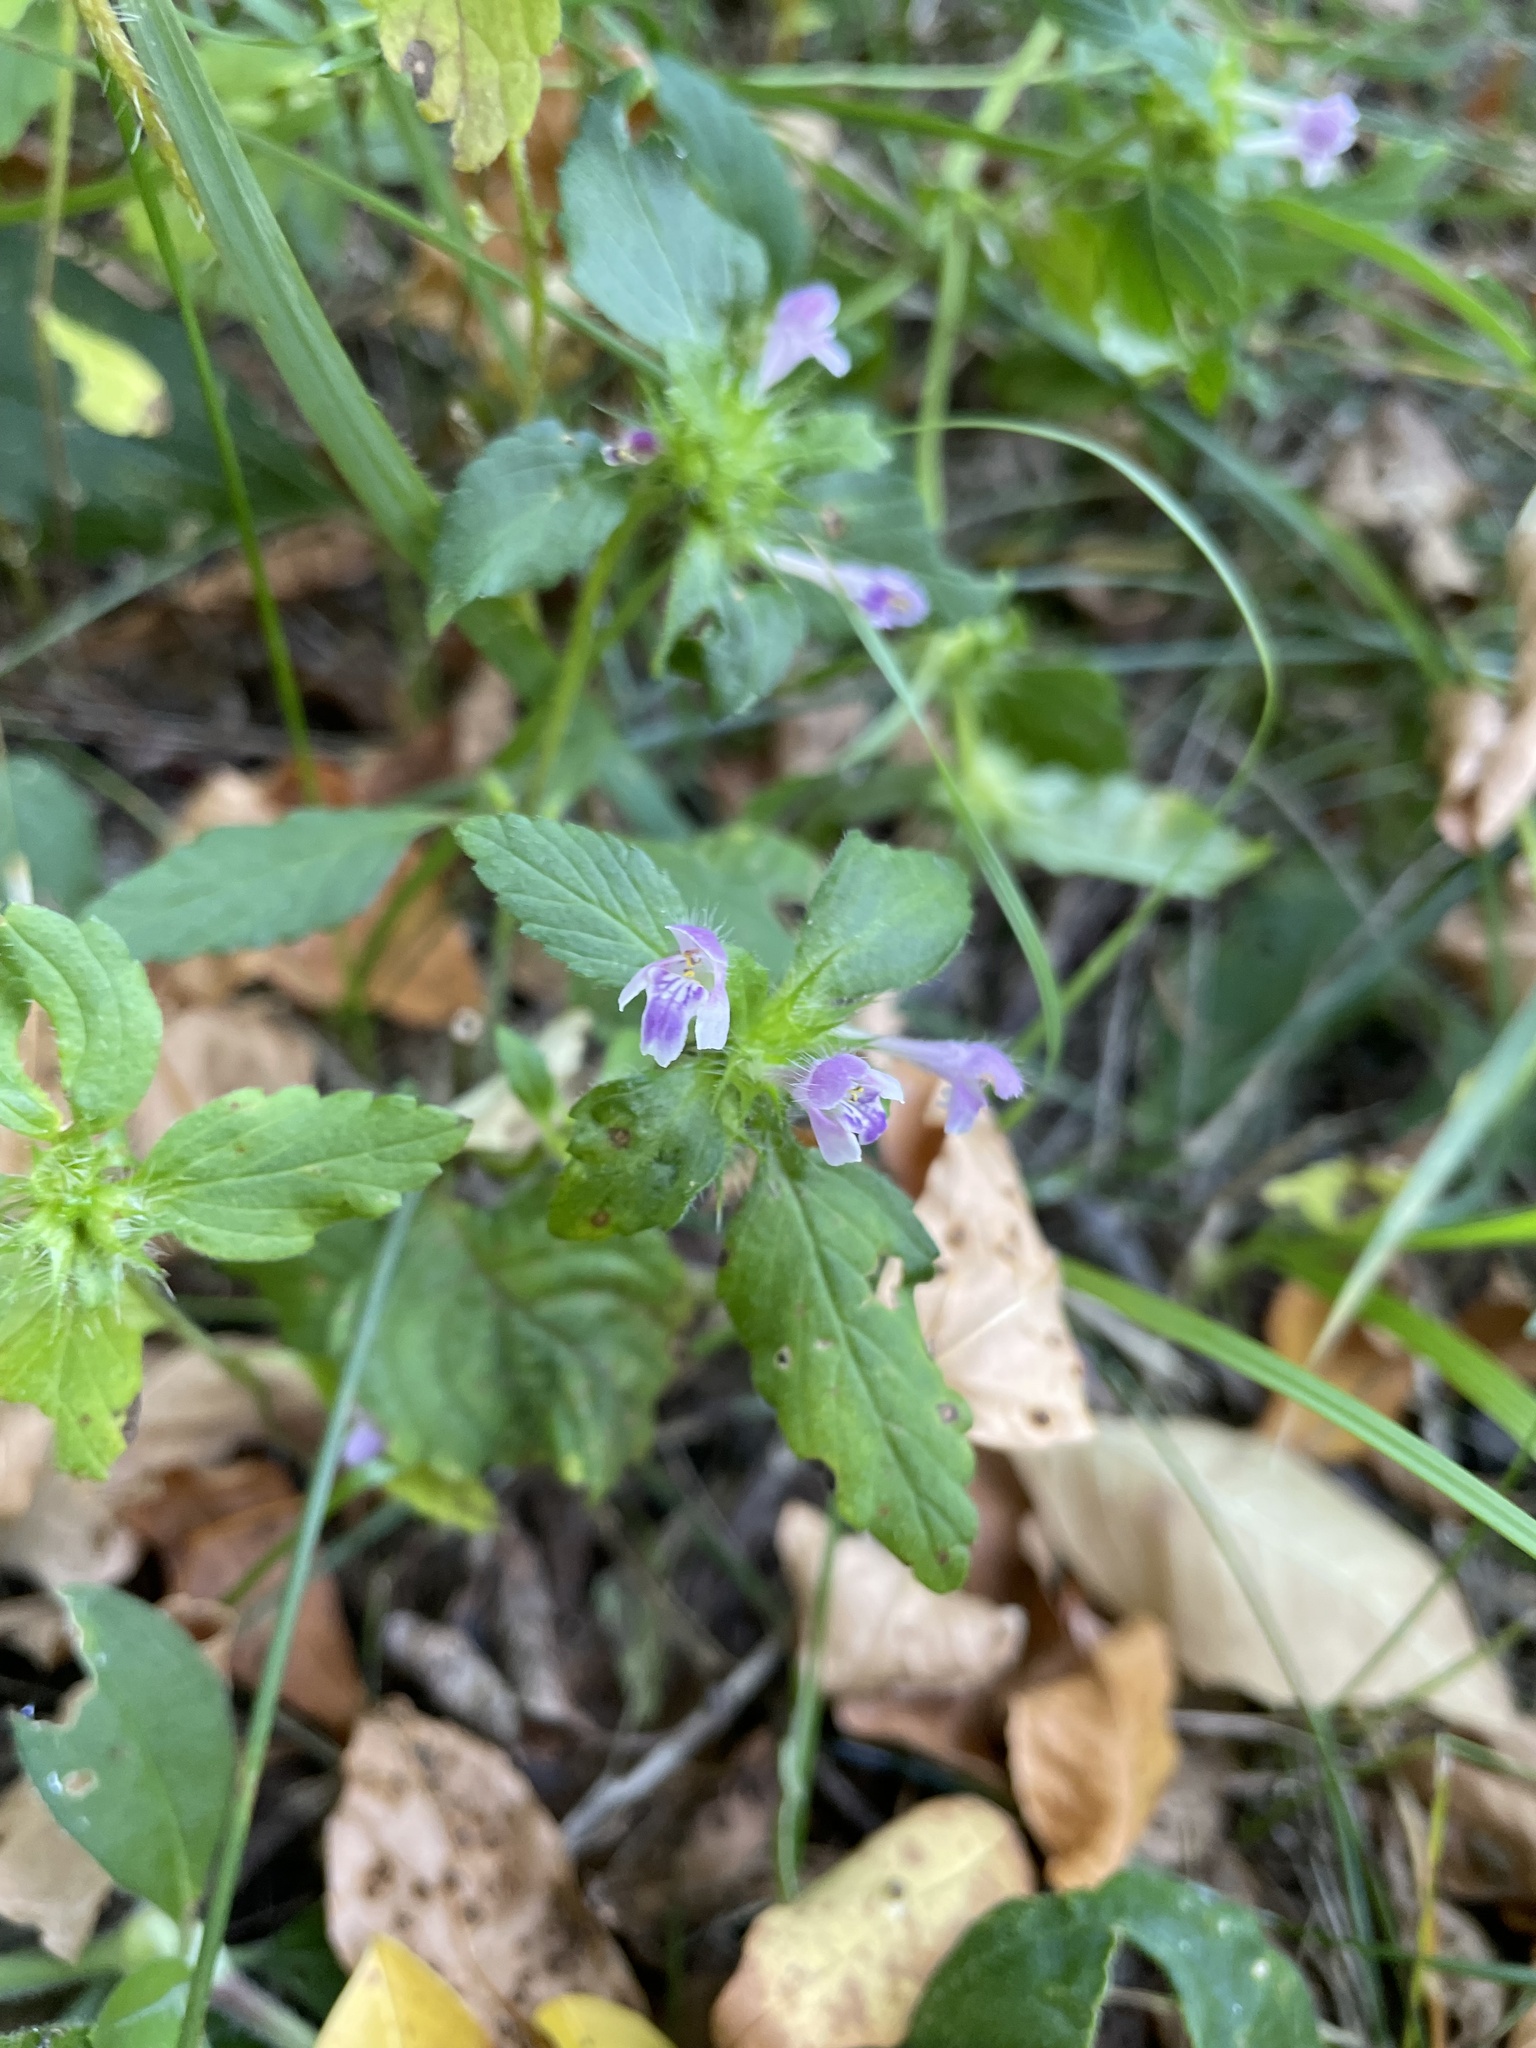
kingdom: Plantae
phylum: Tracheophyta
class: Magnoliopsida
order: Lamiales
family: Lamiaceae
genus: Galeopsis
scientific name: Galeopsis bifida
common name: Bifid hemp-nettle
